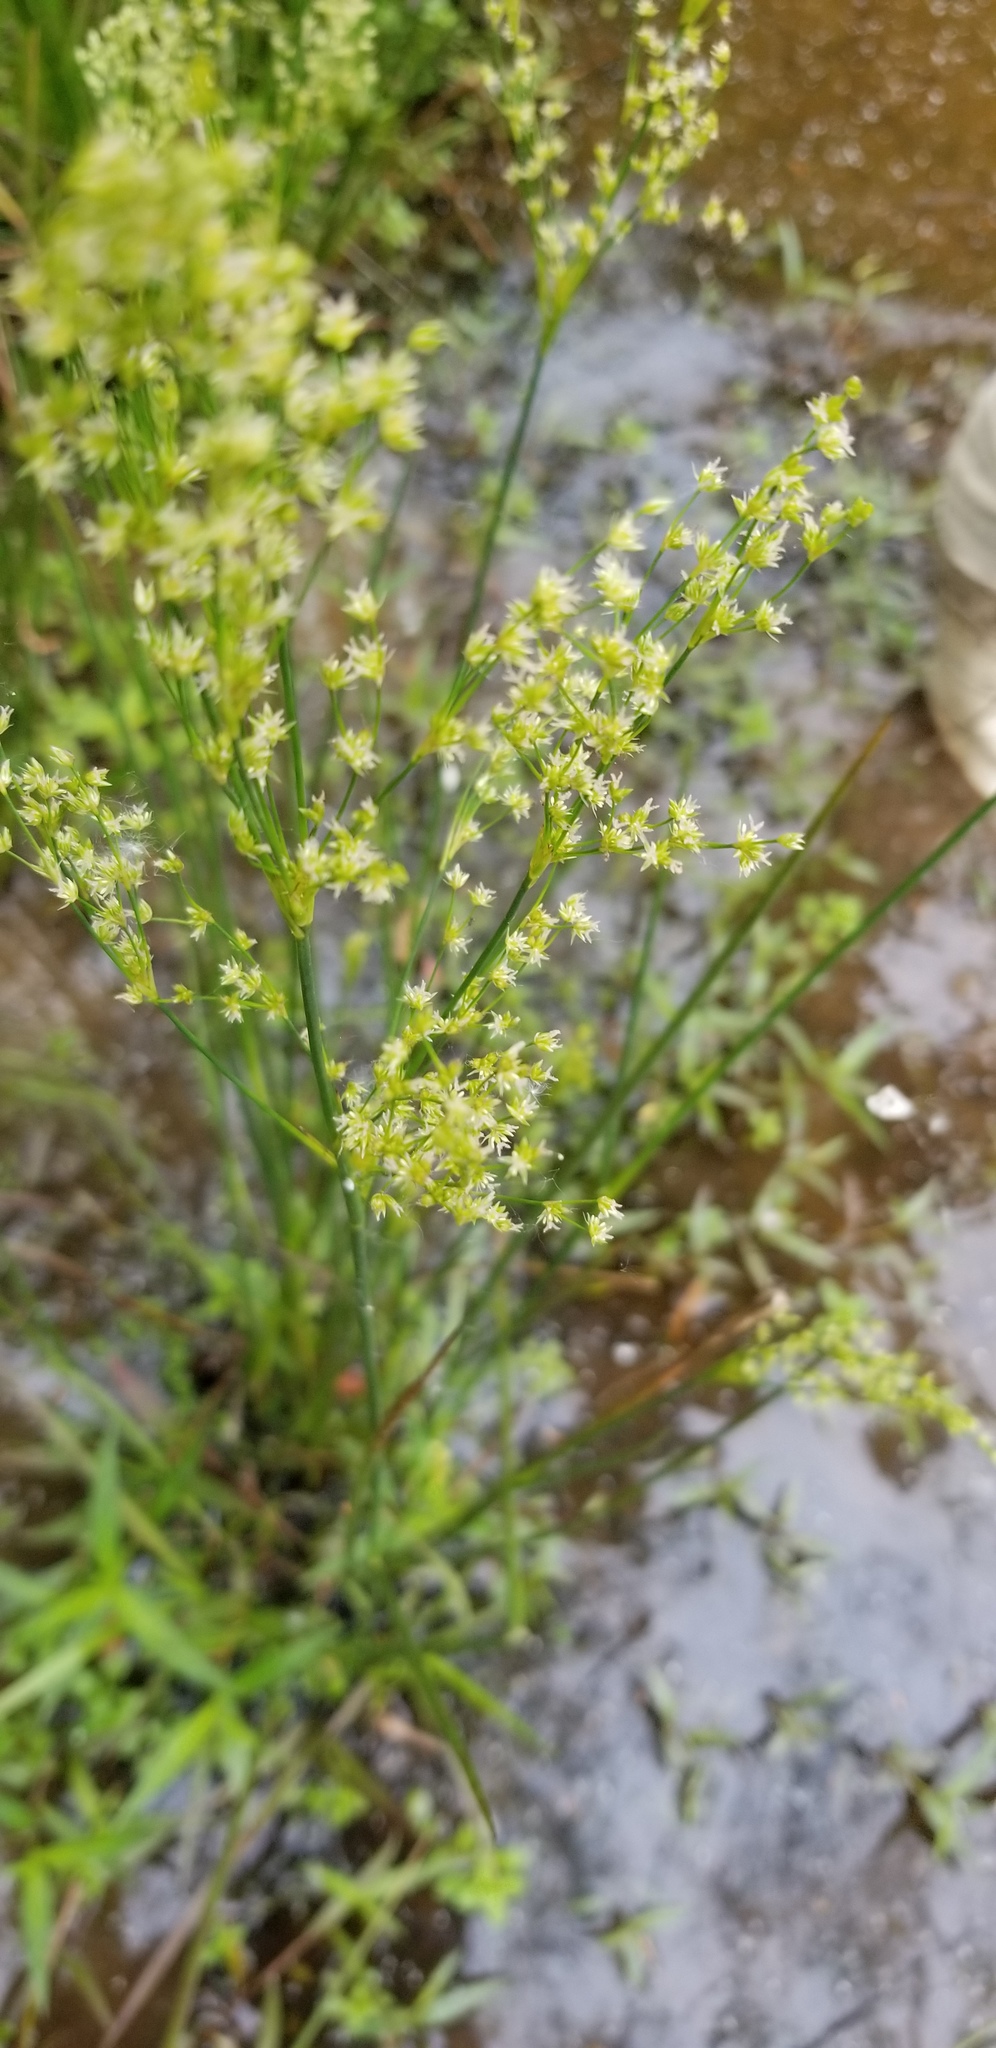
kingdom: Plantae
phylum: Tracheophyta
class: Liliopsida
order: Poales
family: Juncaceae
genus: Juncus
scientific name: Juncus trigonocarpus
